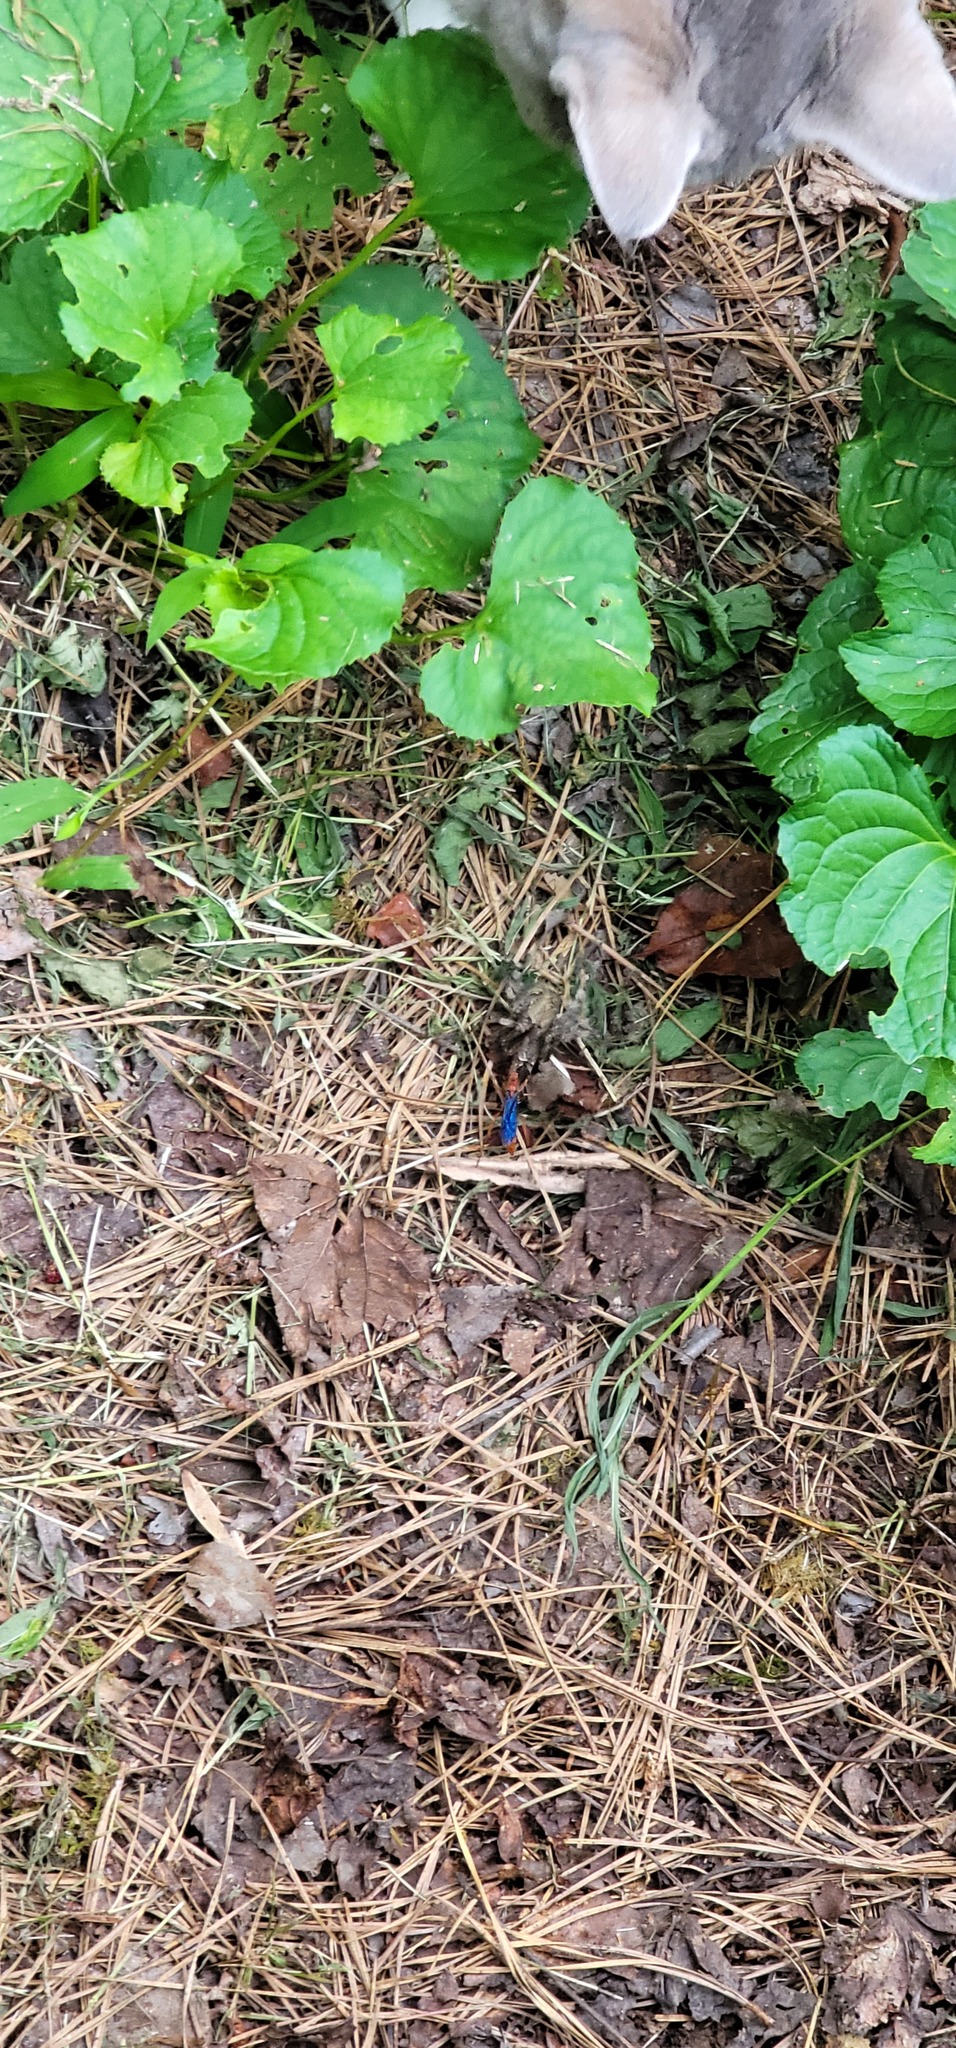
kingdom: Animalia
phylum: Arthropoda
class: Insecta
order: Hymenoptera
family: Pompilidae
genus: Tachypompilus
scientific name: Tachypompilus ferrugineus
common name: Rusty spider wasp
